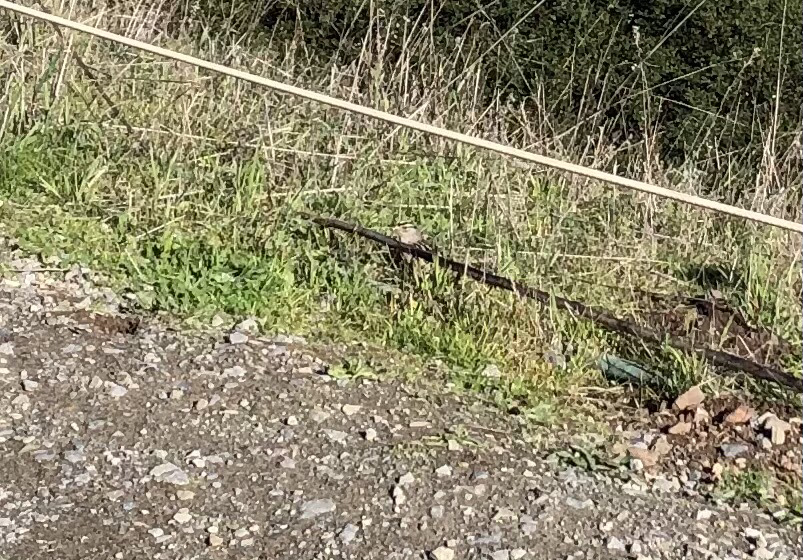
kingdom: Animalia
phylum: Chordata
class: Aves
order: Passeriformes
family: Passerellidae
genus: Zonotrichia
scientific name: Zonotrichia leucophrys
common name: White-crowned sparrow
